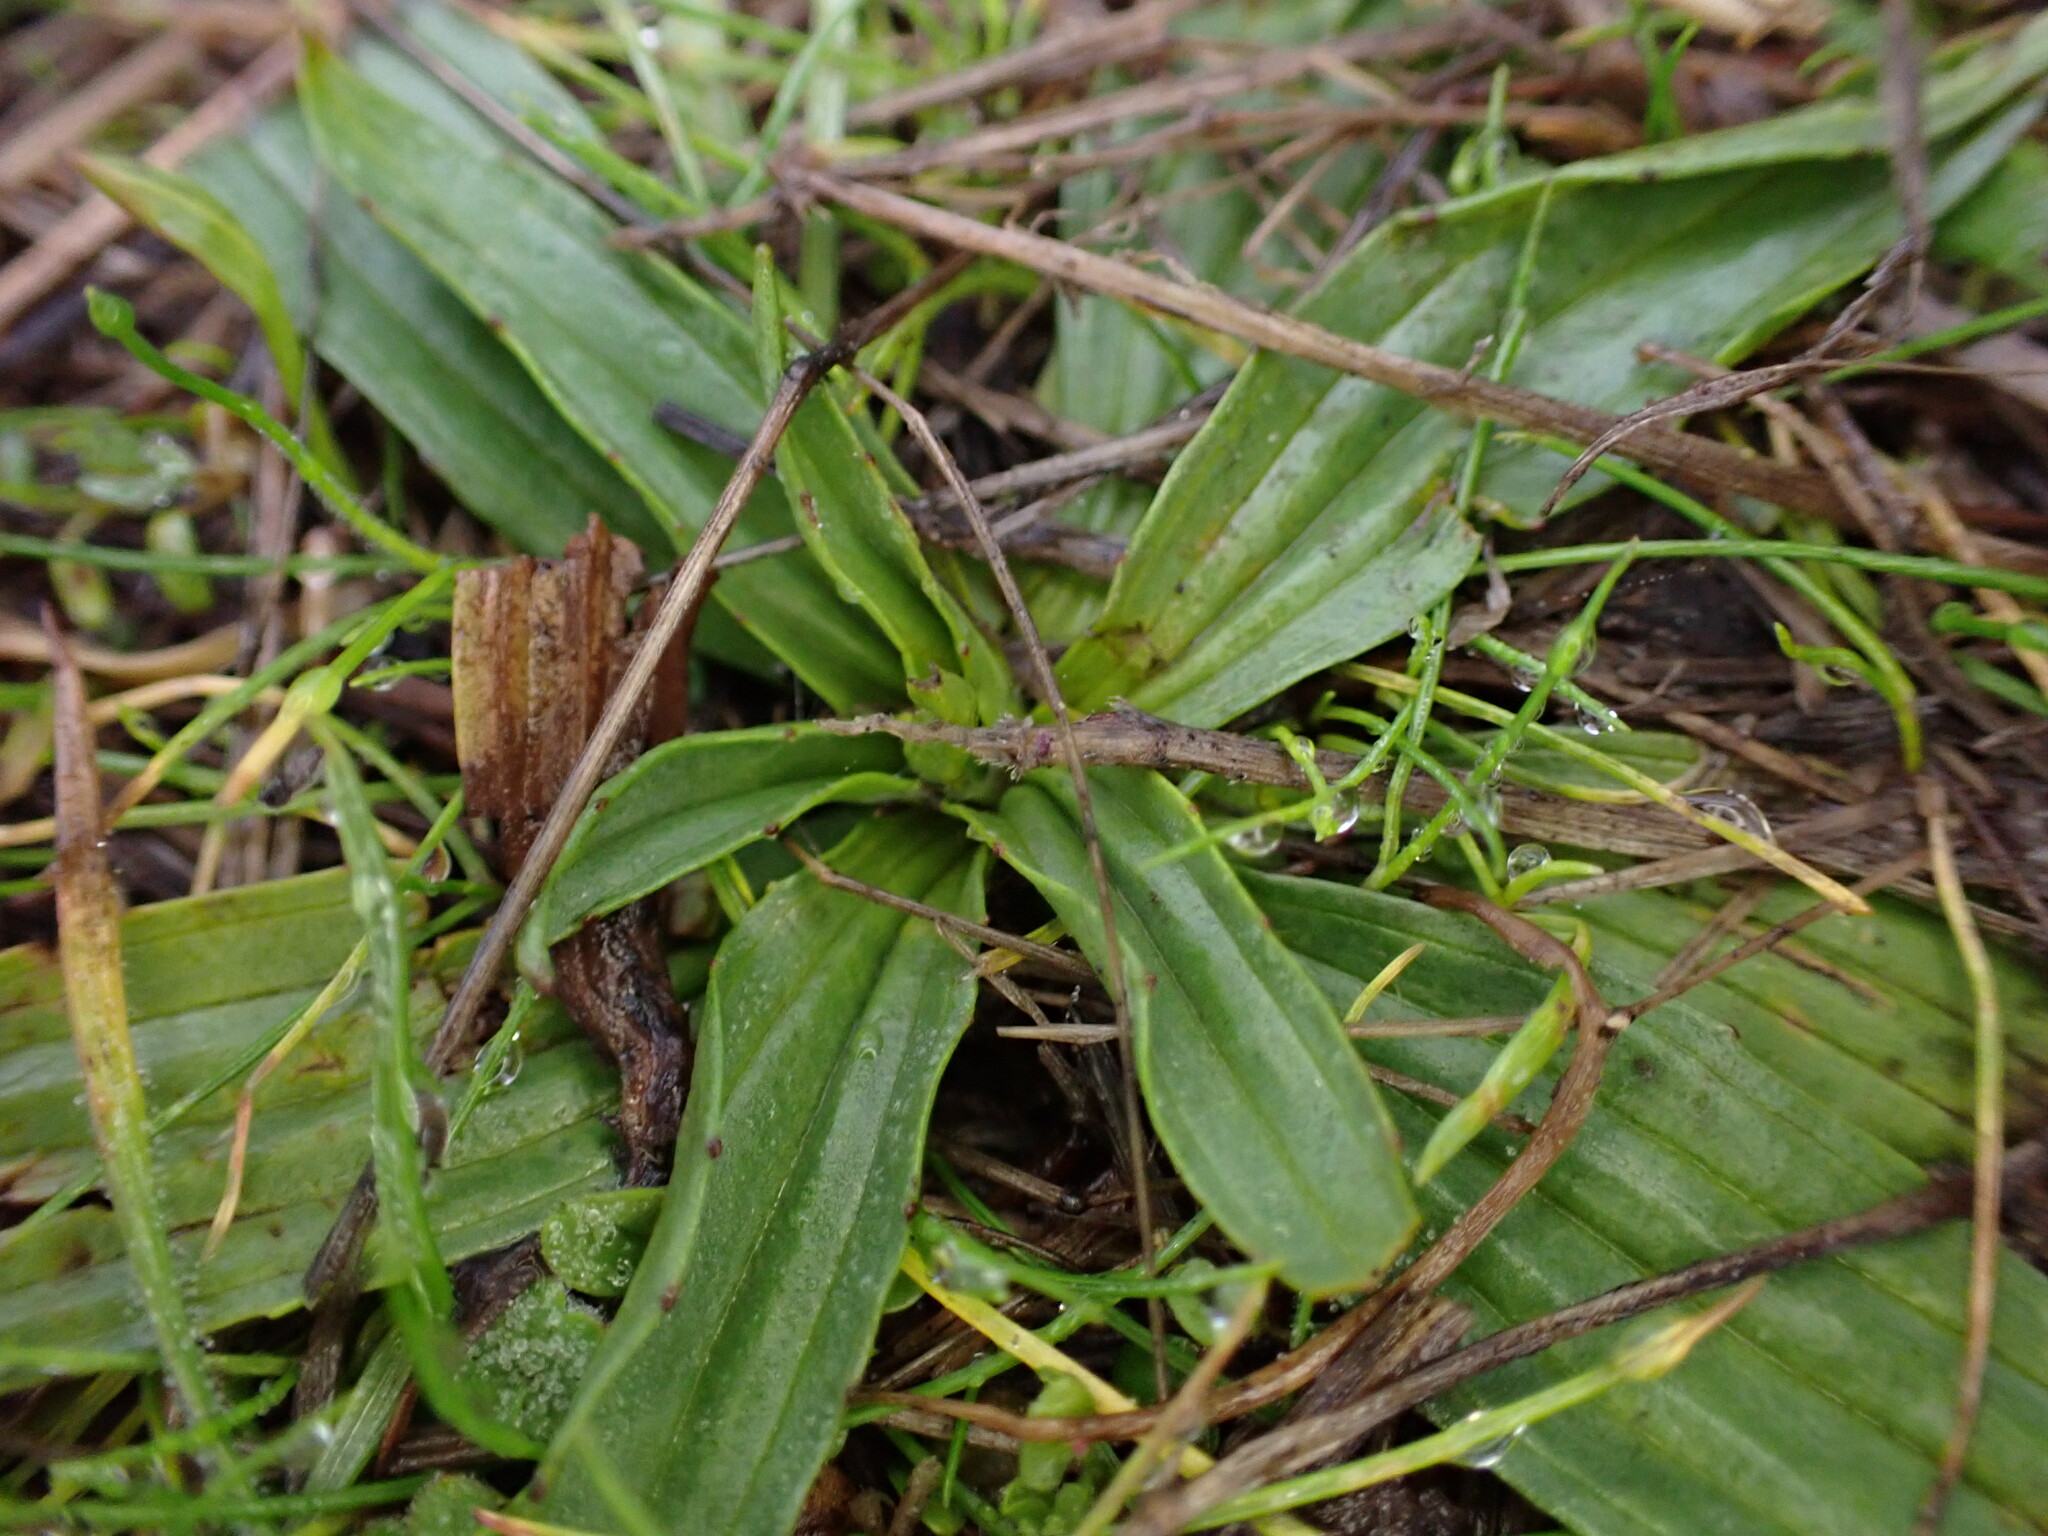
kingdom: Plantae
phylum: Tracheophyta
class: Magnoliopsida
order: Lamiales
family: Plantaginaceae
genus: Plantago
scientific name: Plantago lanceolata
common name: Ribwort plantain
